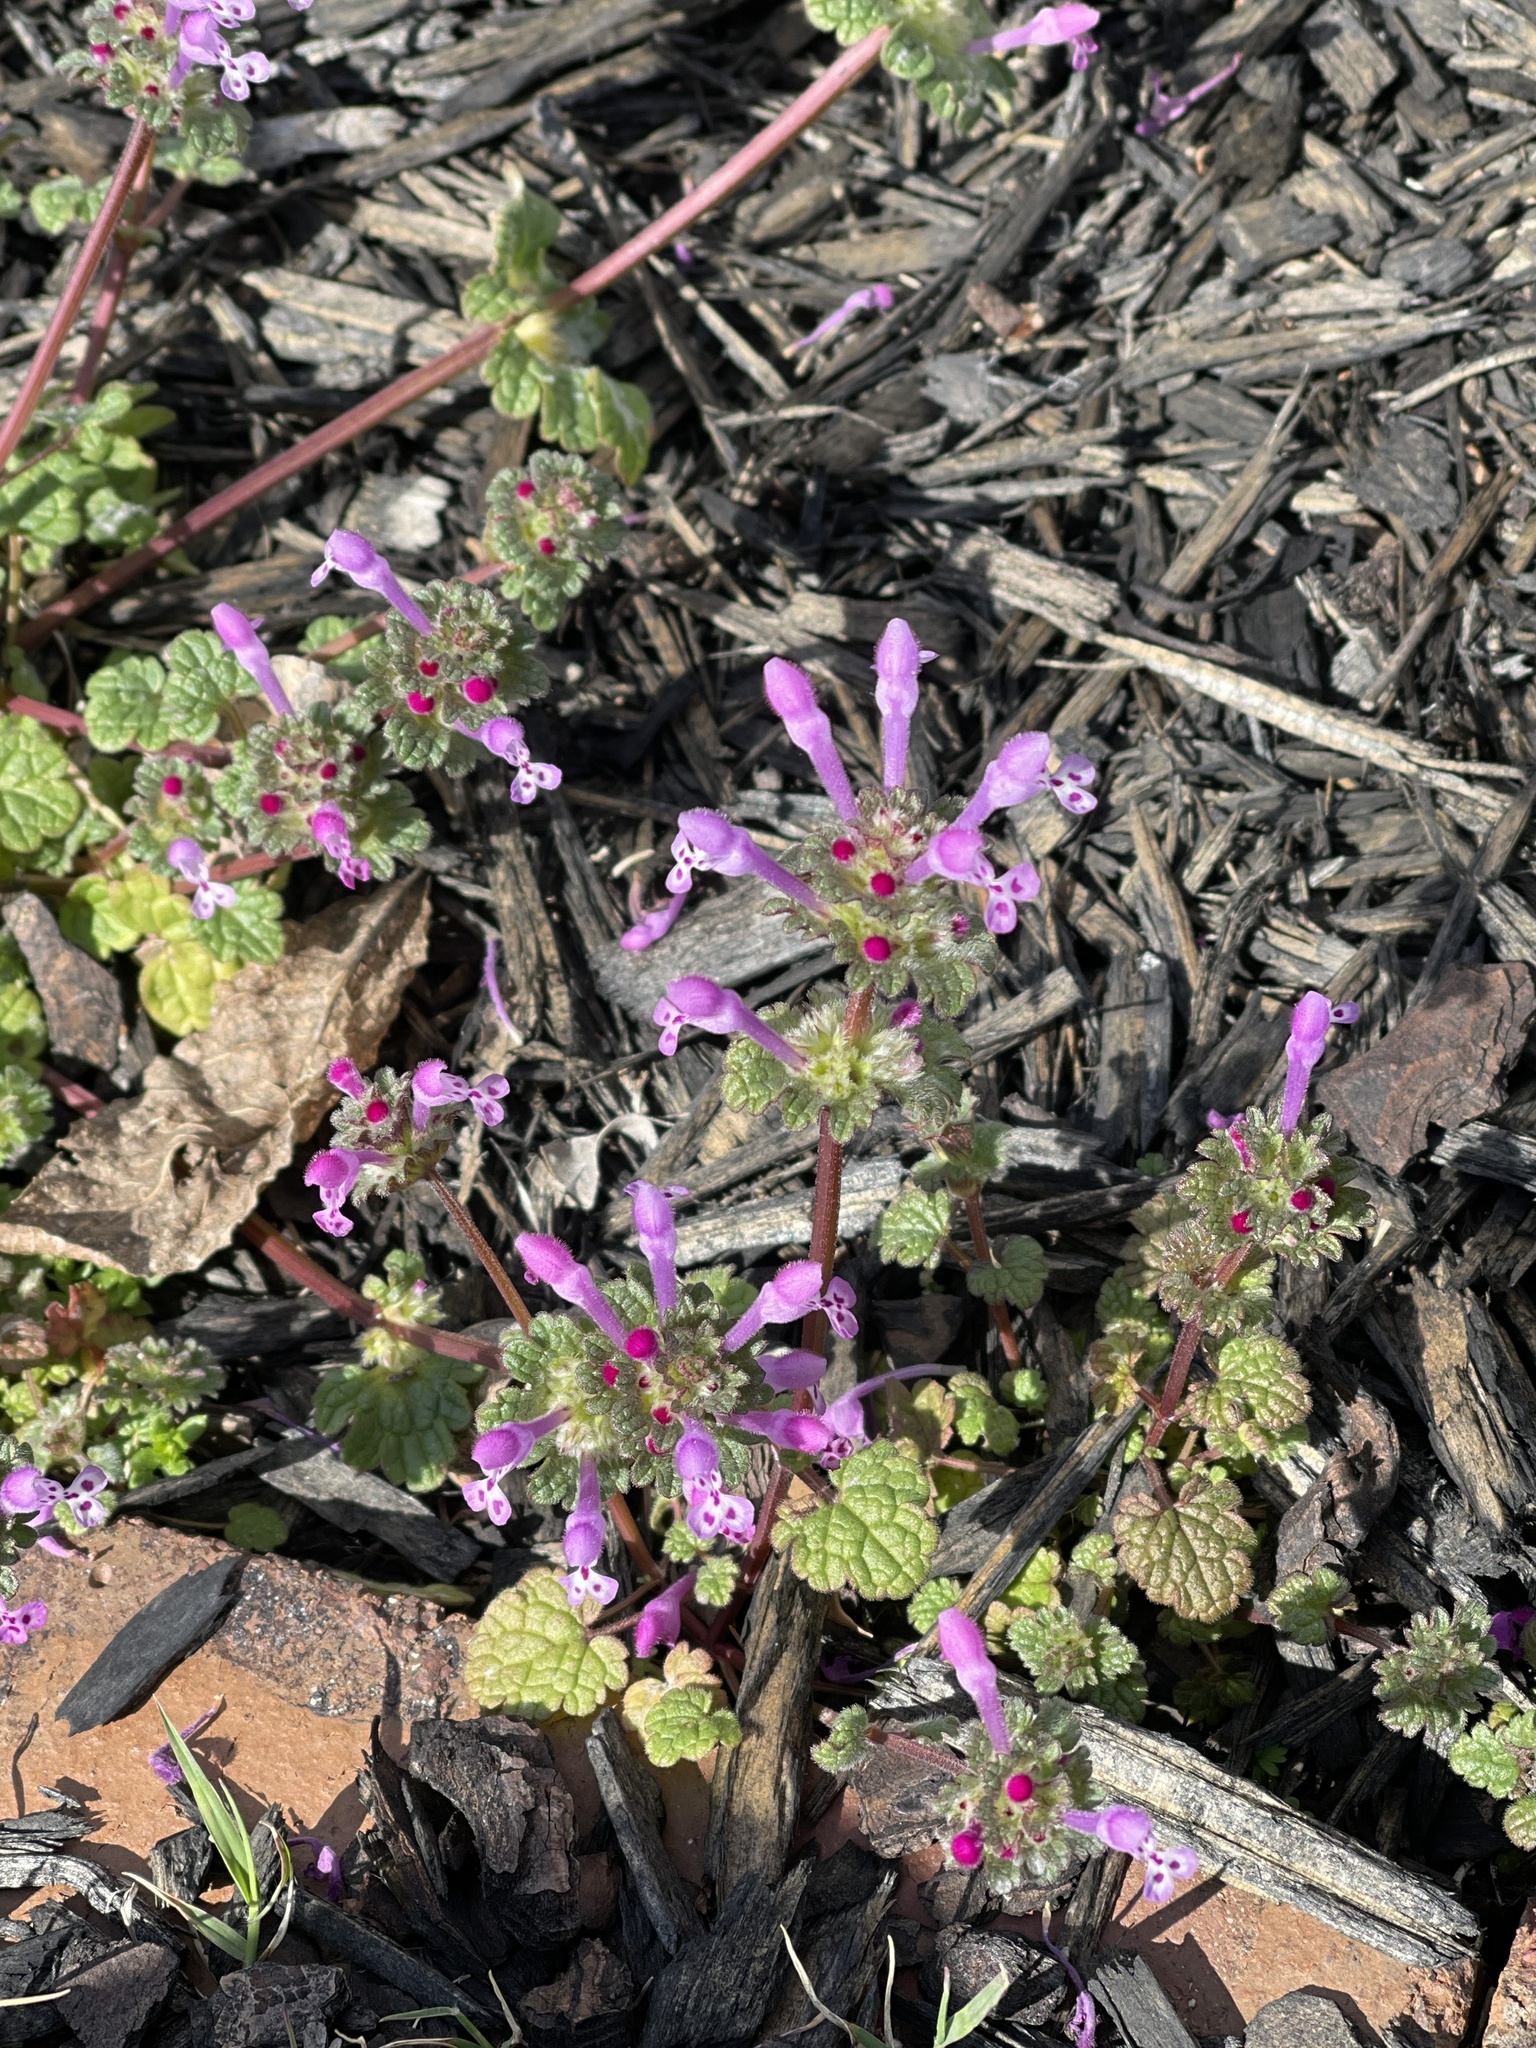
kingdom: Plantae
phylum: Tracheophyta
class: Magnoliopsida
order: Lamiales
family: Lamiaceae
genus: Lamium
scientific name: Lamium amplexicaule
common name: Henbit dead-nettle
